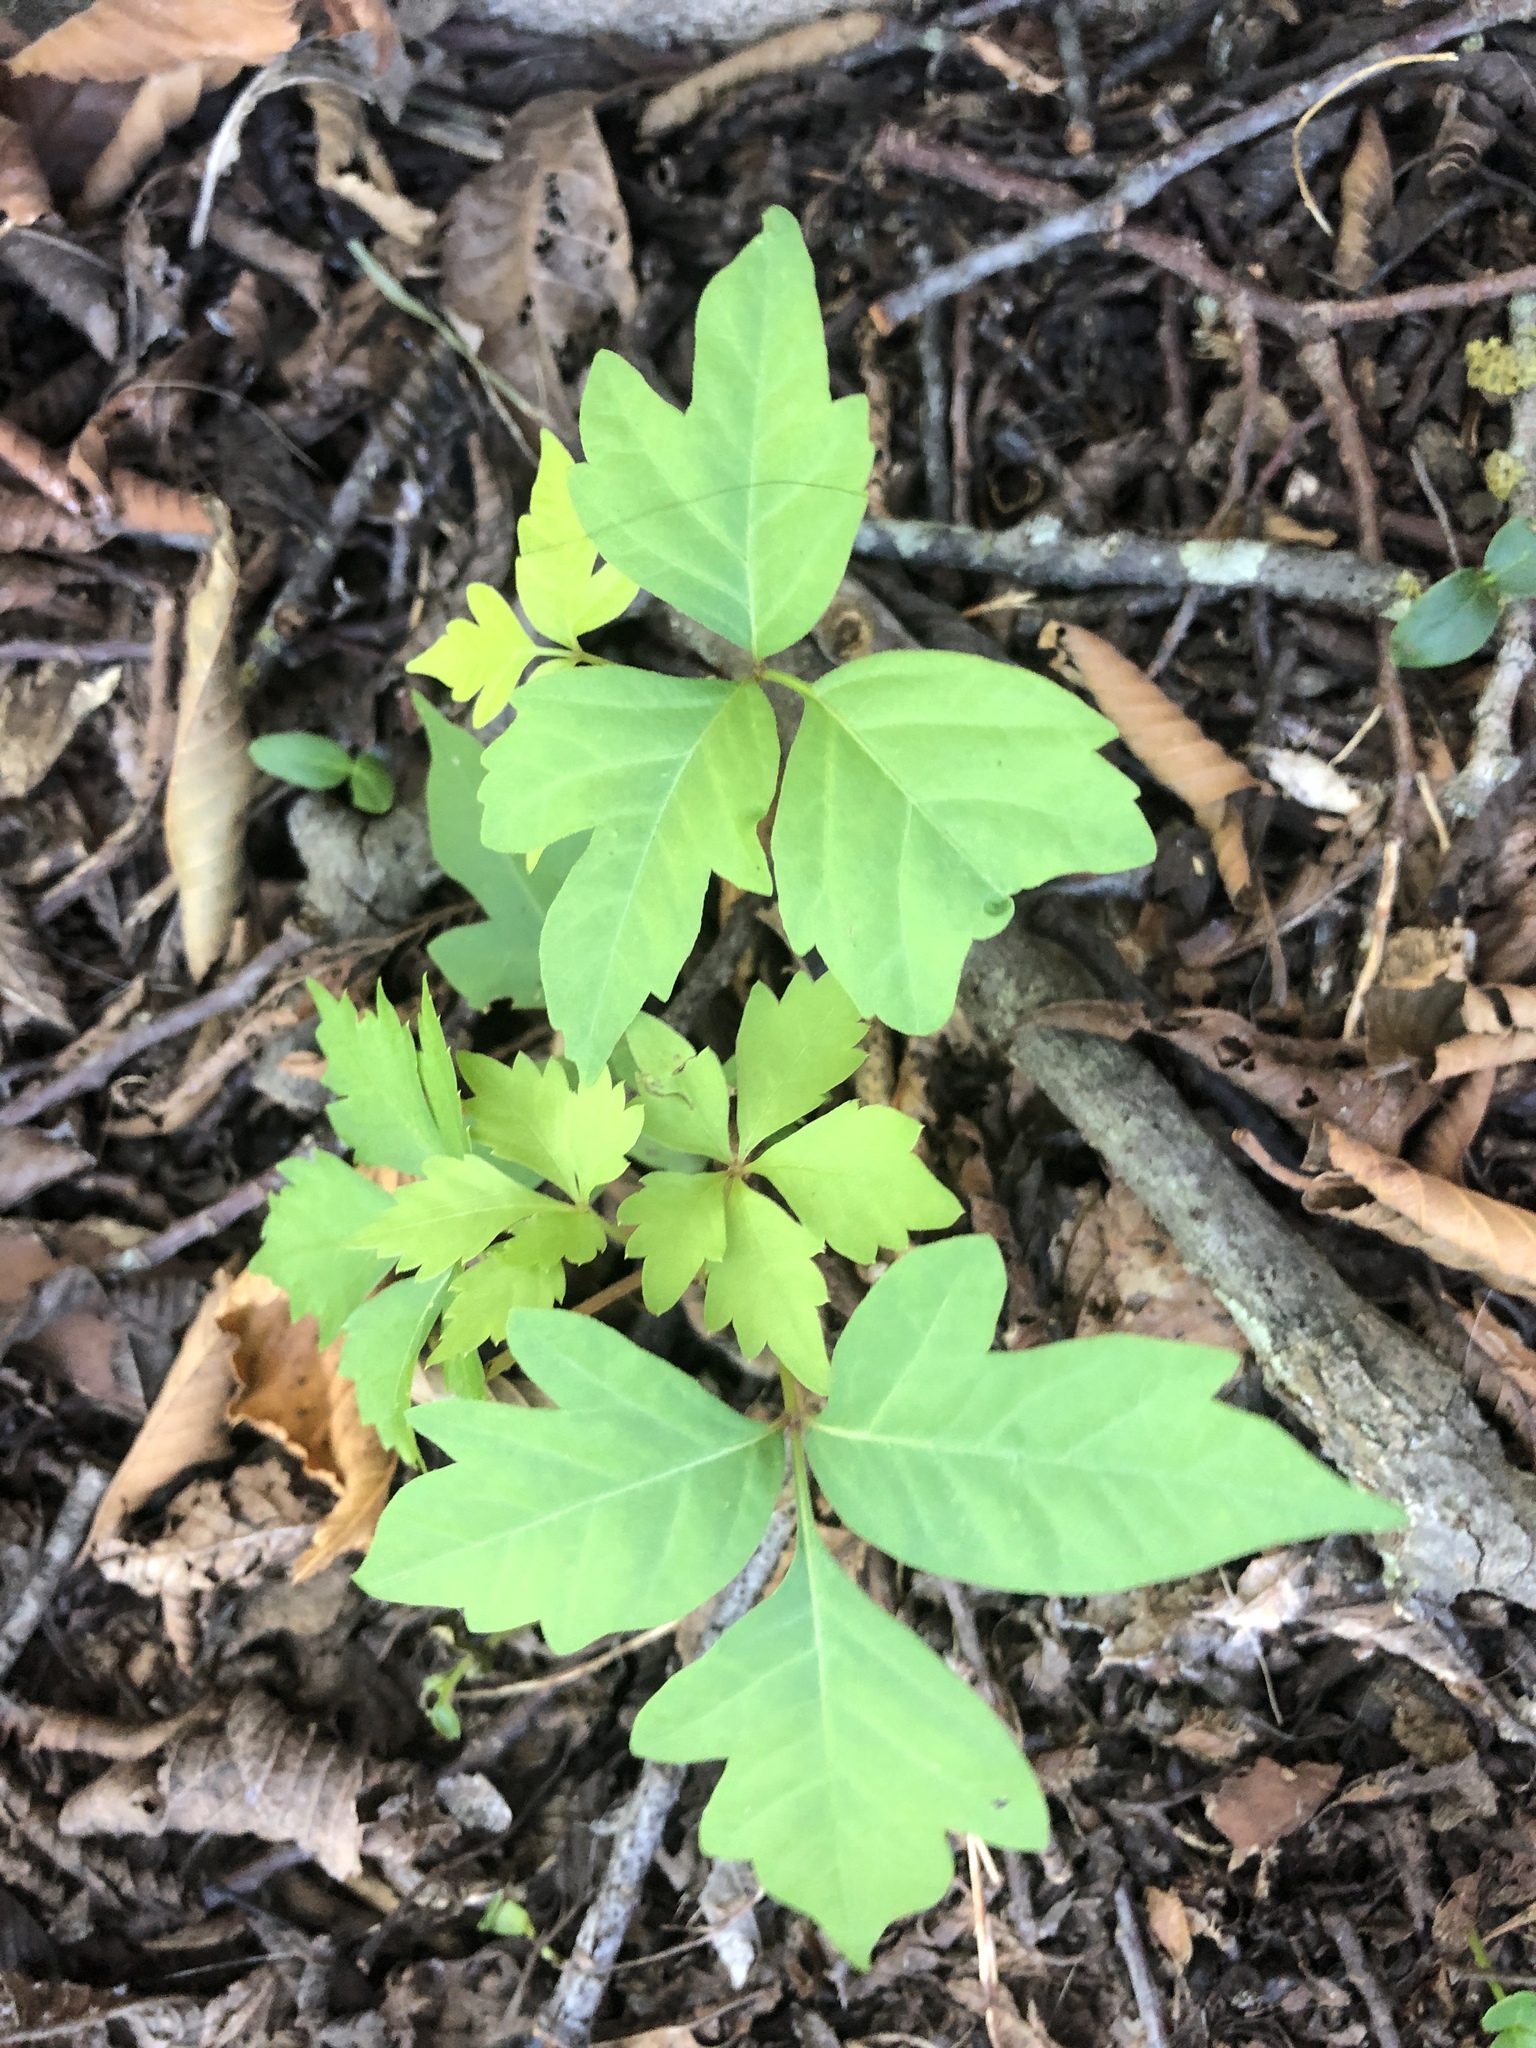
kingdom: Plantae
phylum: Tracheophyta
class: Magnoliopsida
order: Sapindales
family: Anacardiaceae
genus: Toxicodendron
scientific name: Toxicodendron radicans
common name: Poison ivy
